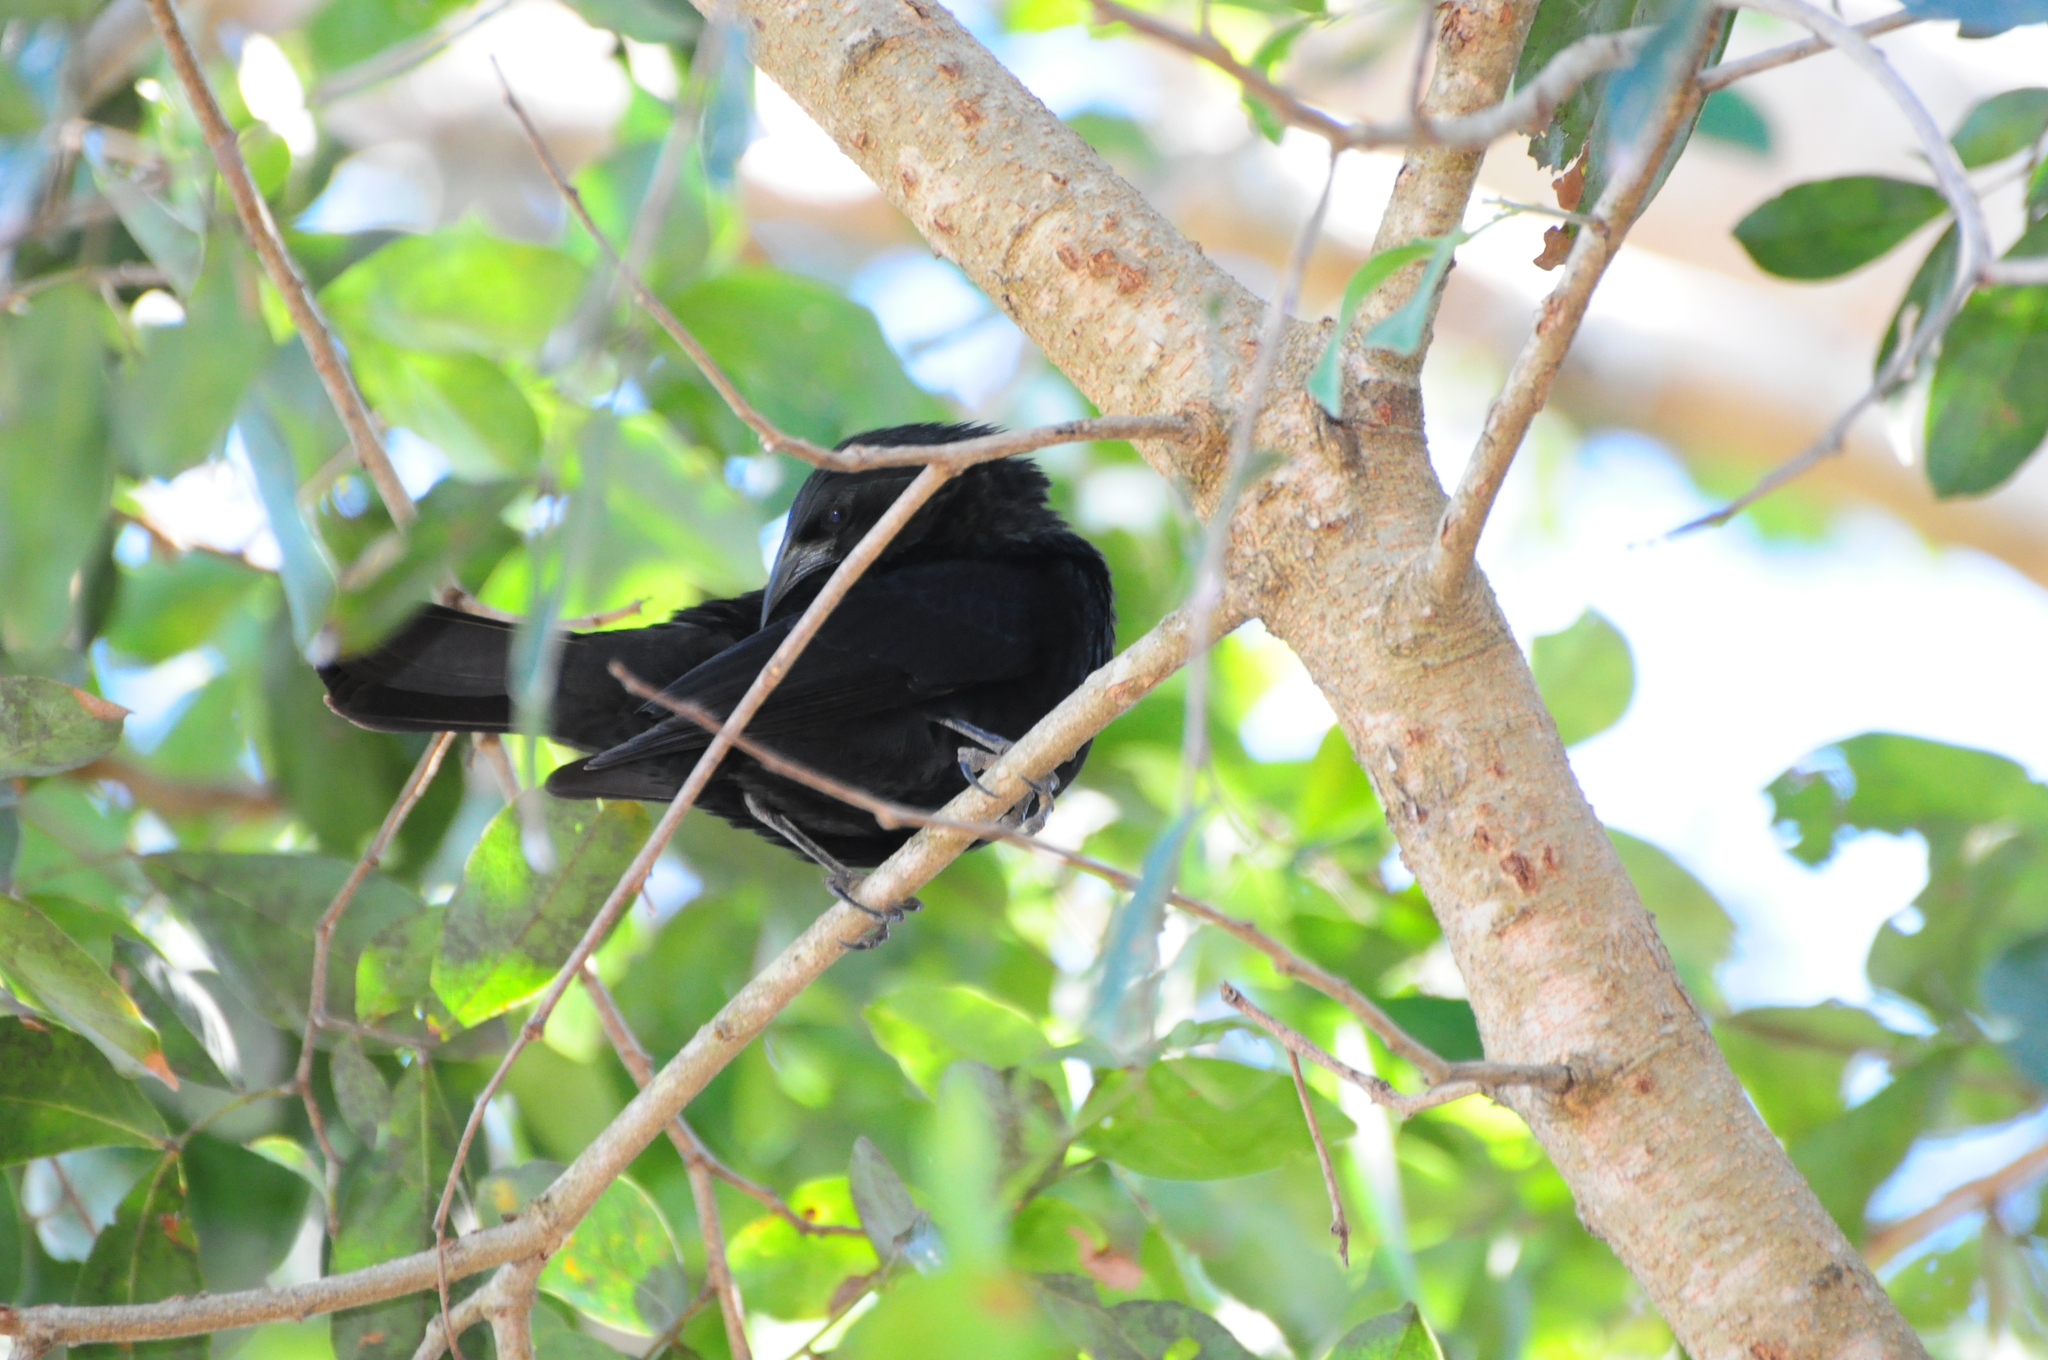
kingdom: Animalia
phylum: Chordata
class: Aves
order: Passeriformes
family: Icteridae
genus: Gnorimopsar
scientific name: Gnorimopsar chopi
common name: Chopi blackbird
